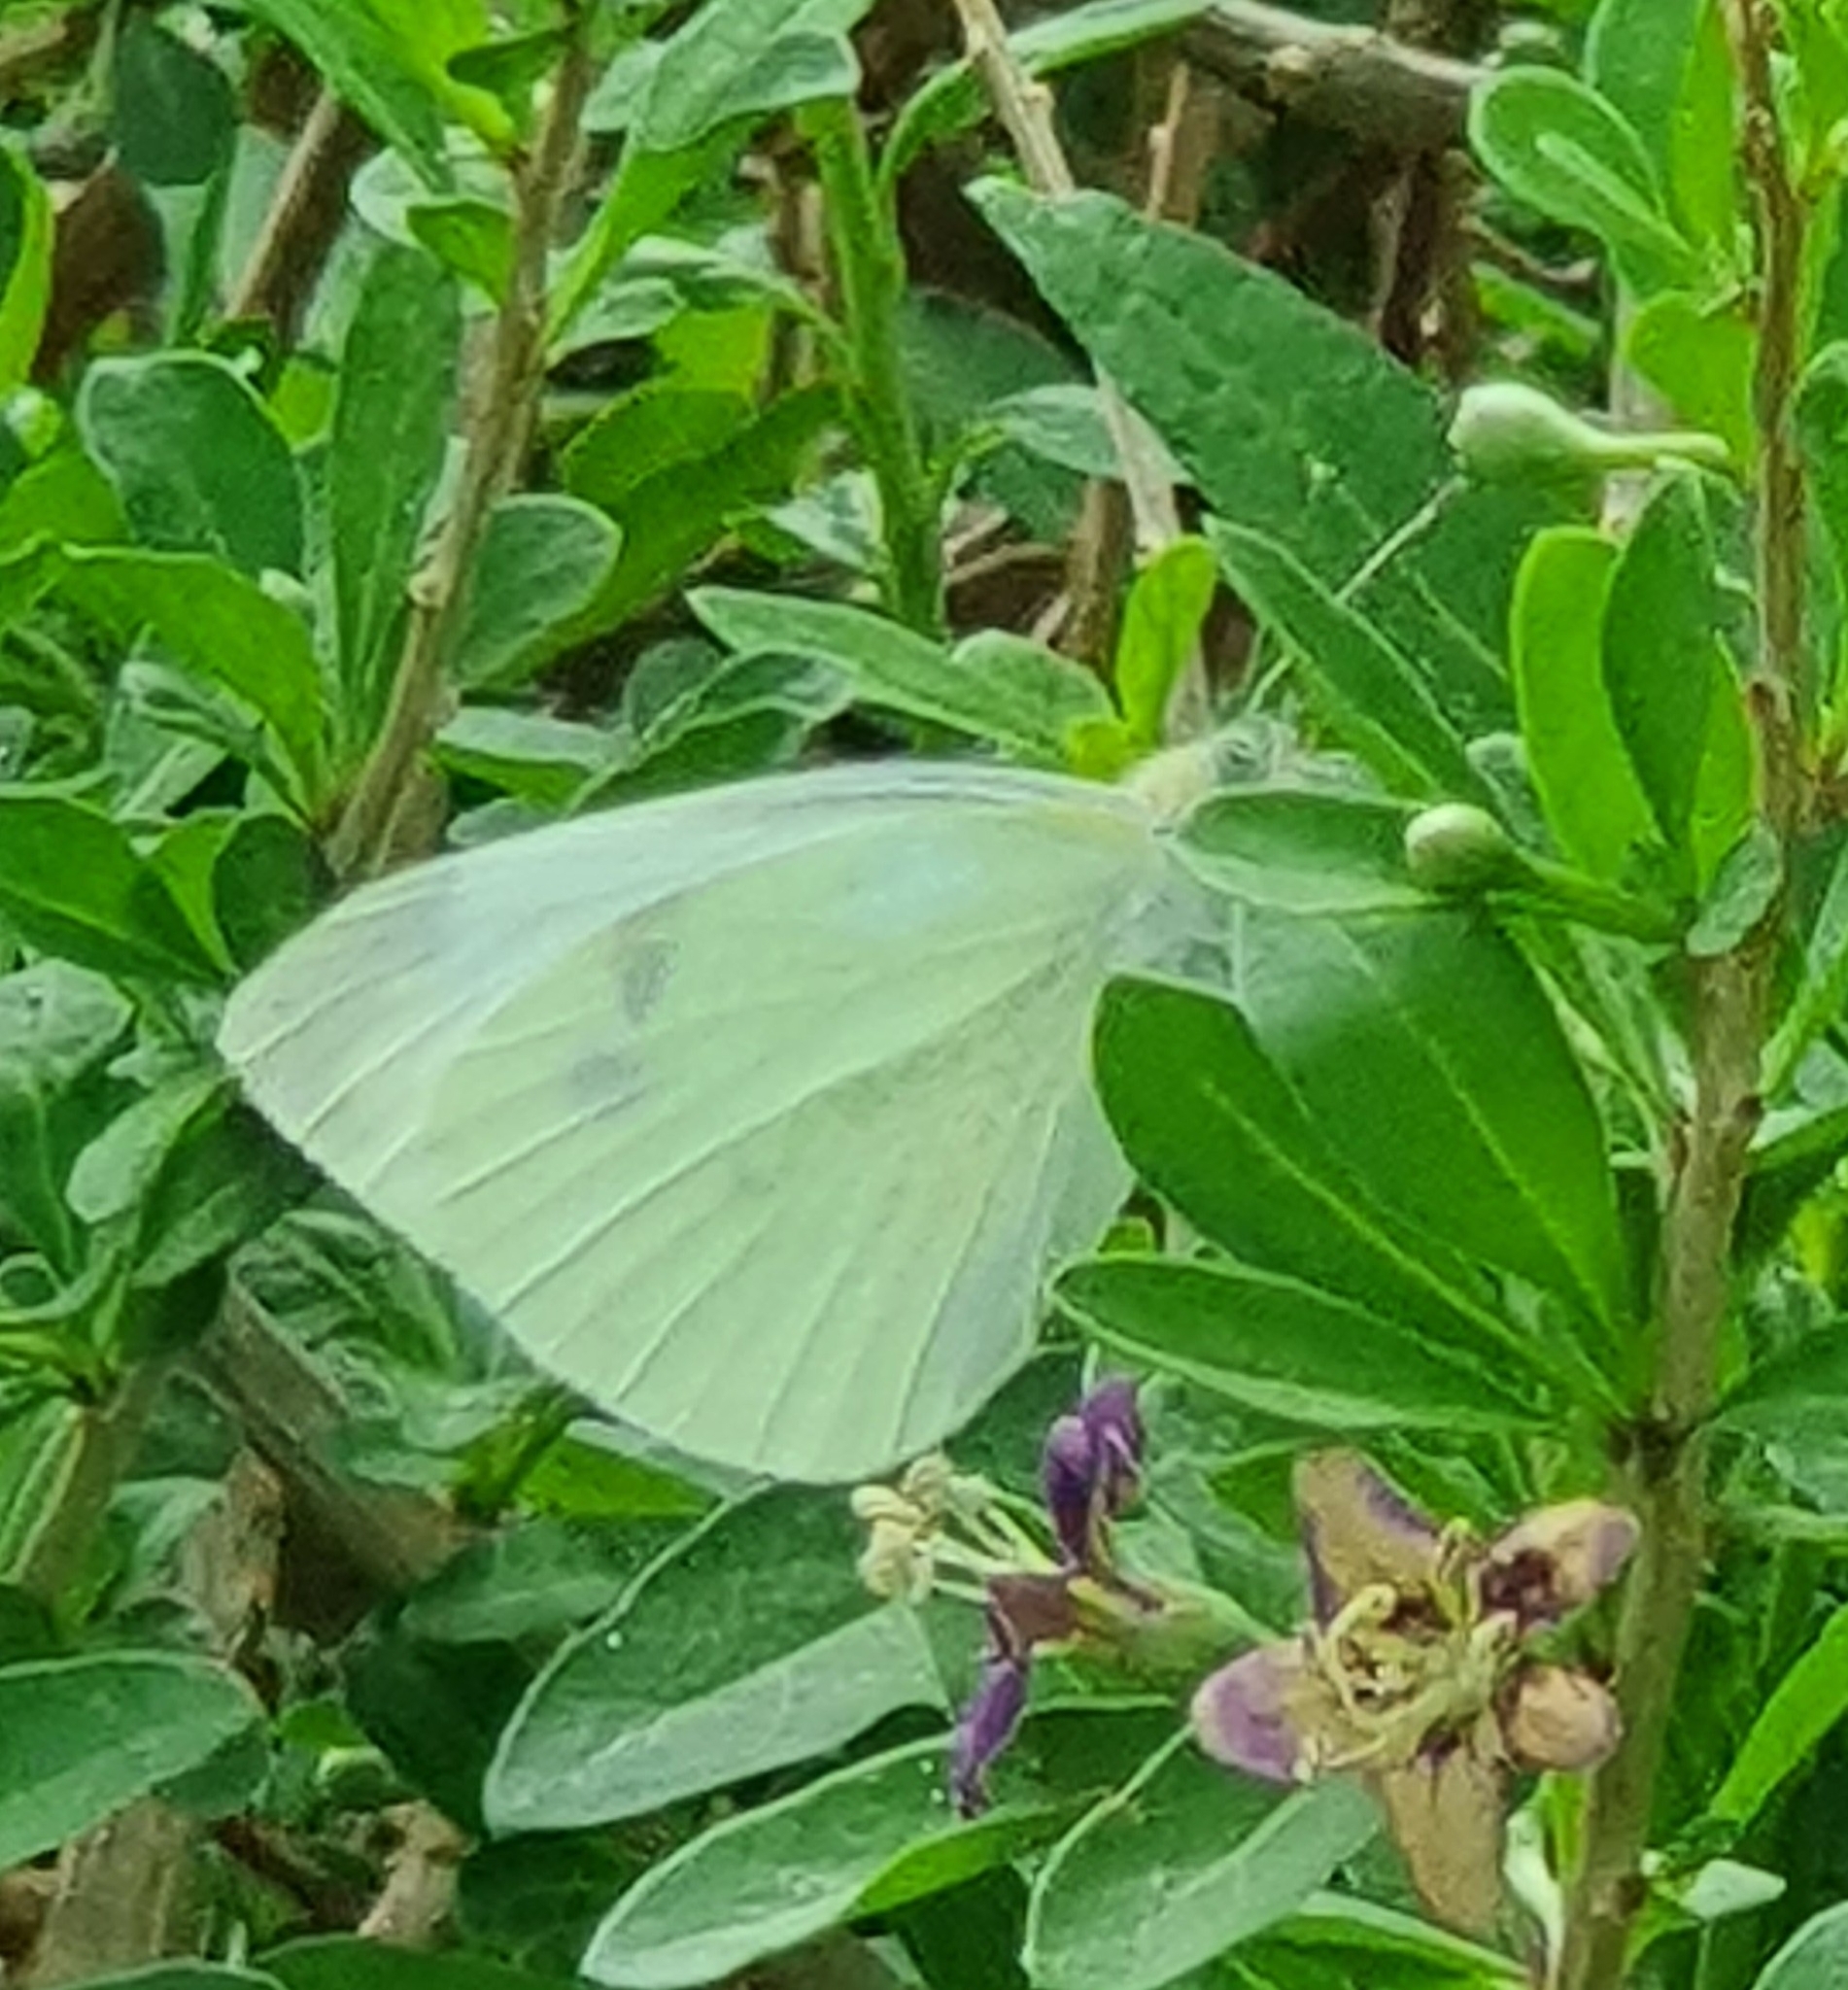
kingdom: Animalia
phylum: Arthropoda
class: Insecta
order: Lepidoptera
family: Pieridae
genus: Pieris
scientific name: Pieris rapae
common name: Small white
